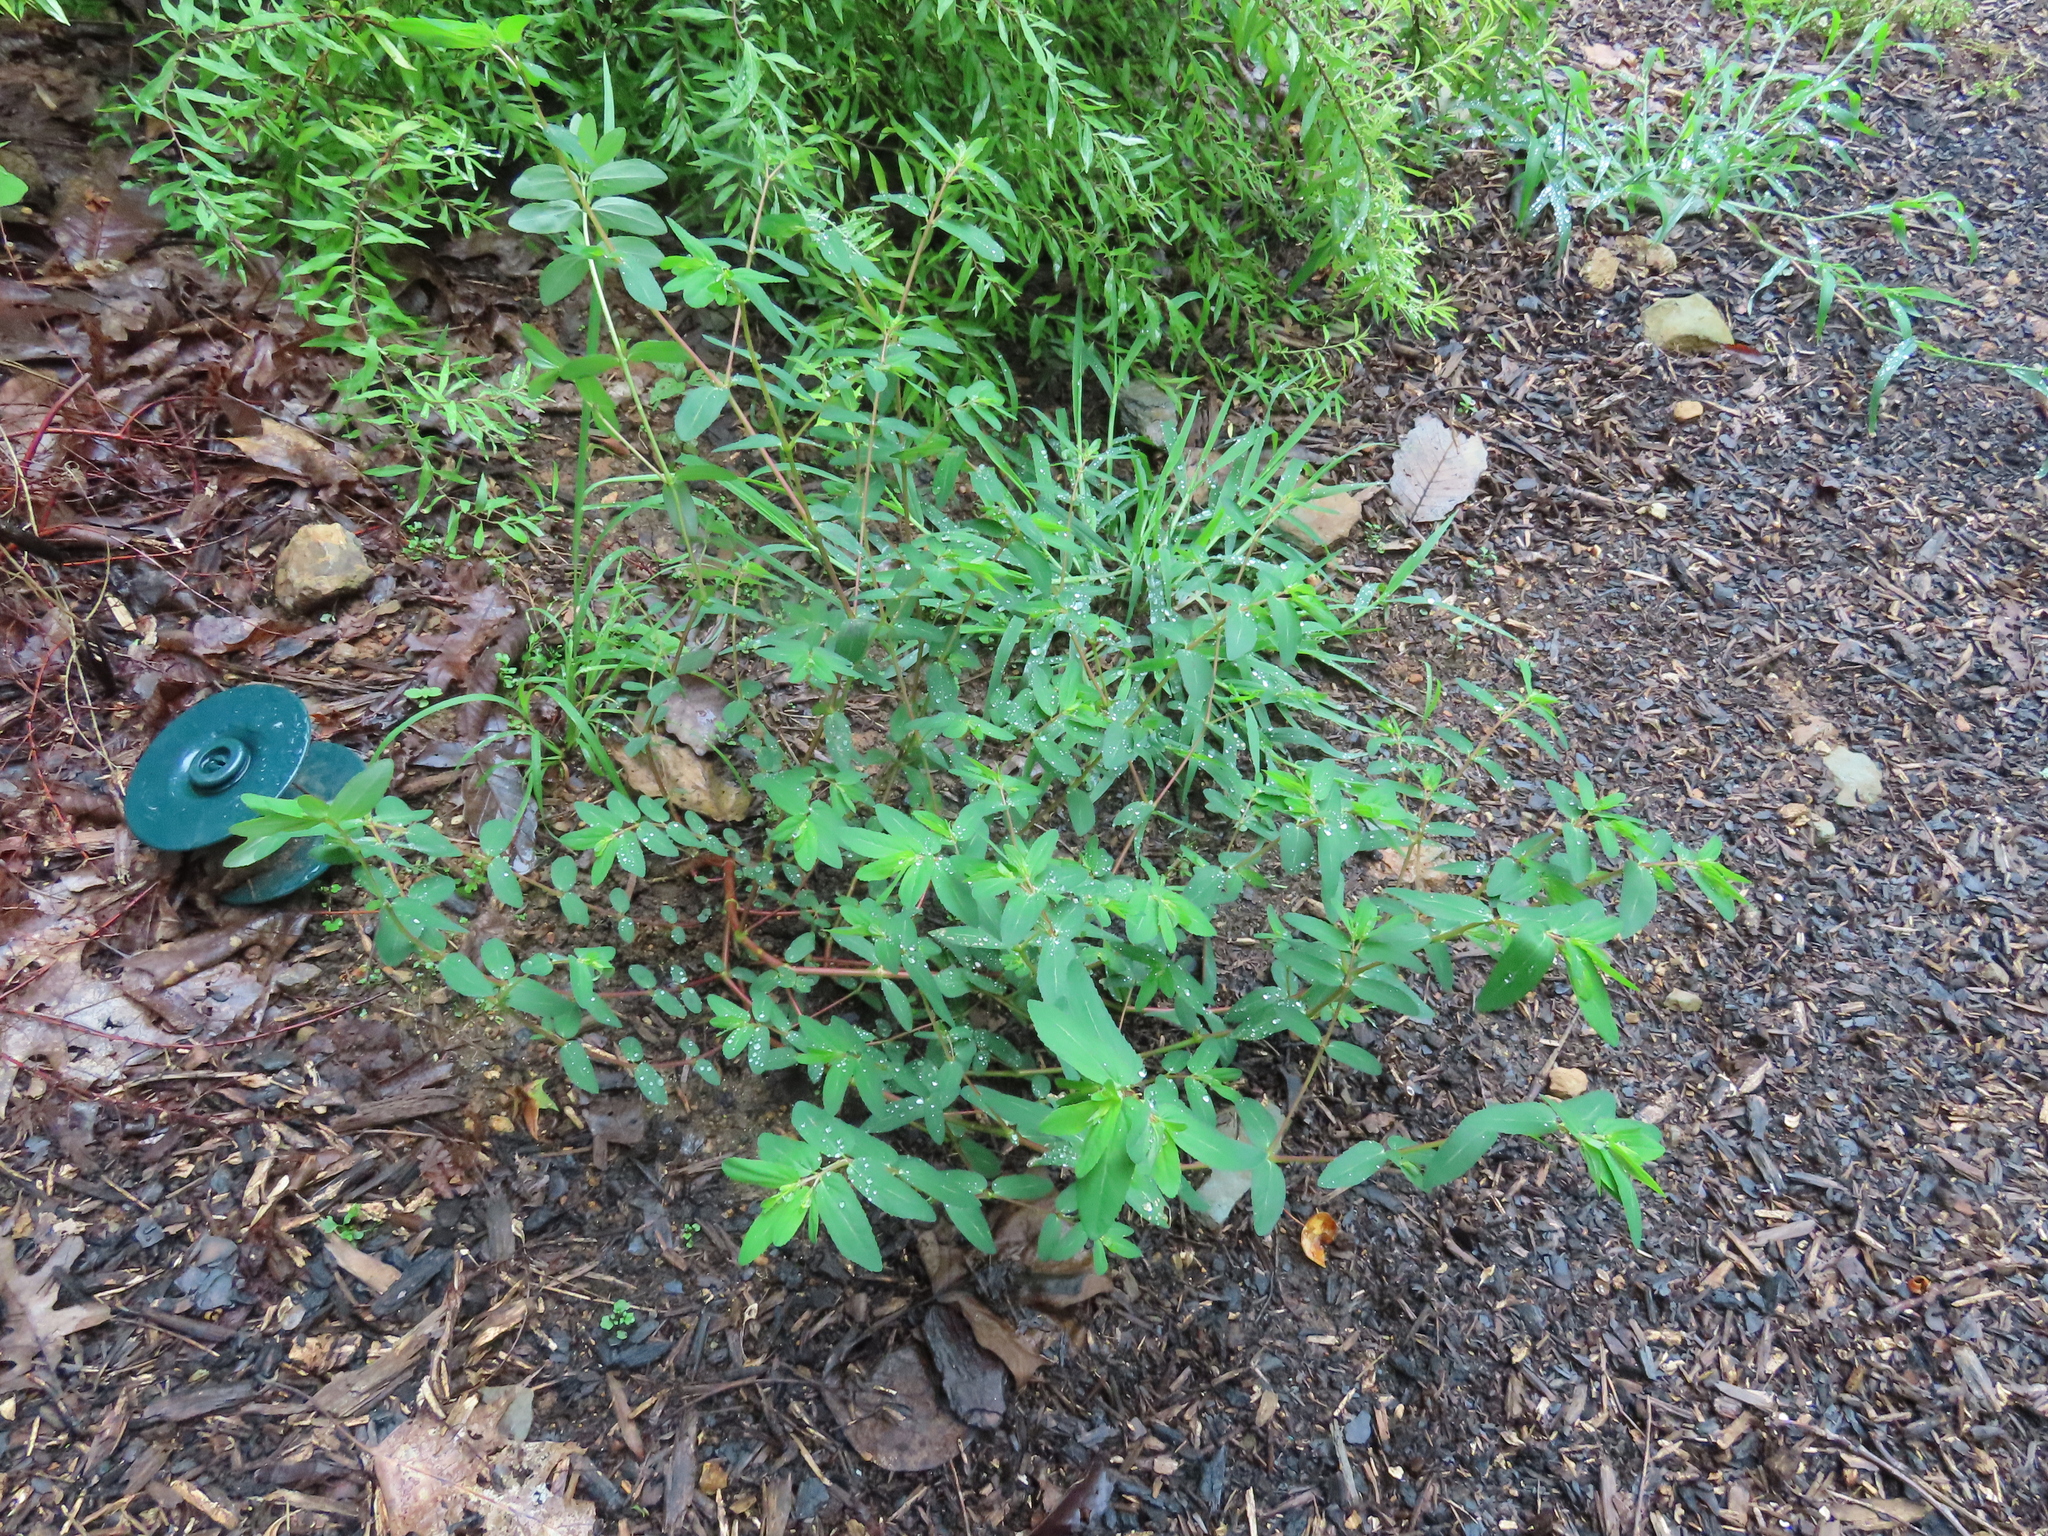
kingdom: Plantae
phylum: Tracheophyta
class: Magnoliopsida
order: Malpighiales
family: Euphorbiaceae
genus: Euphorbia
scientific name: Euphorbia nutans
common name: Eyebane
